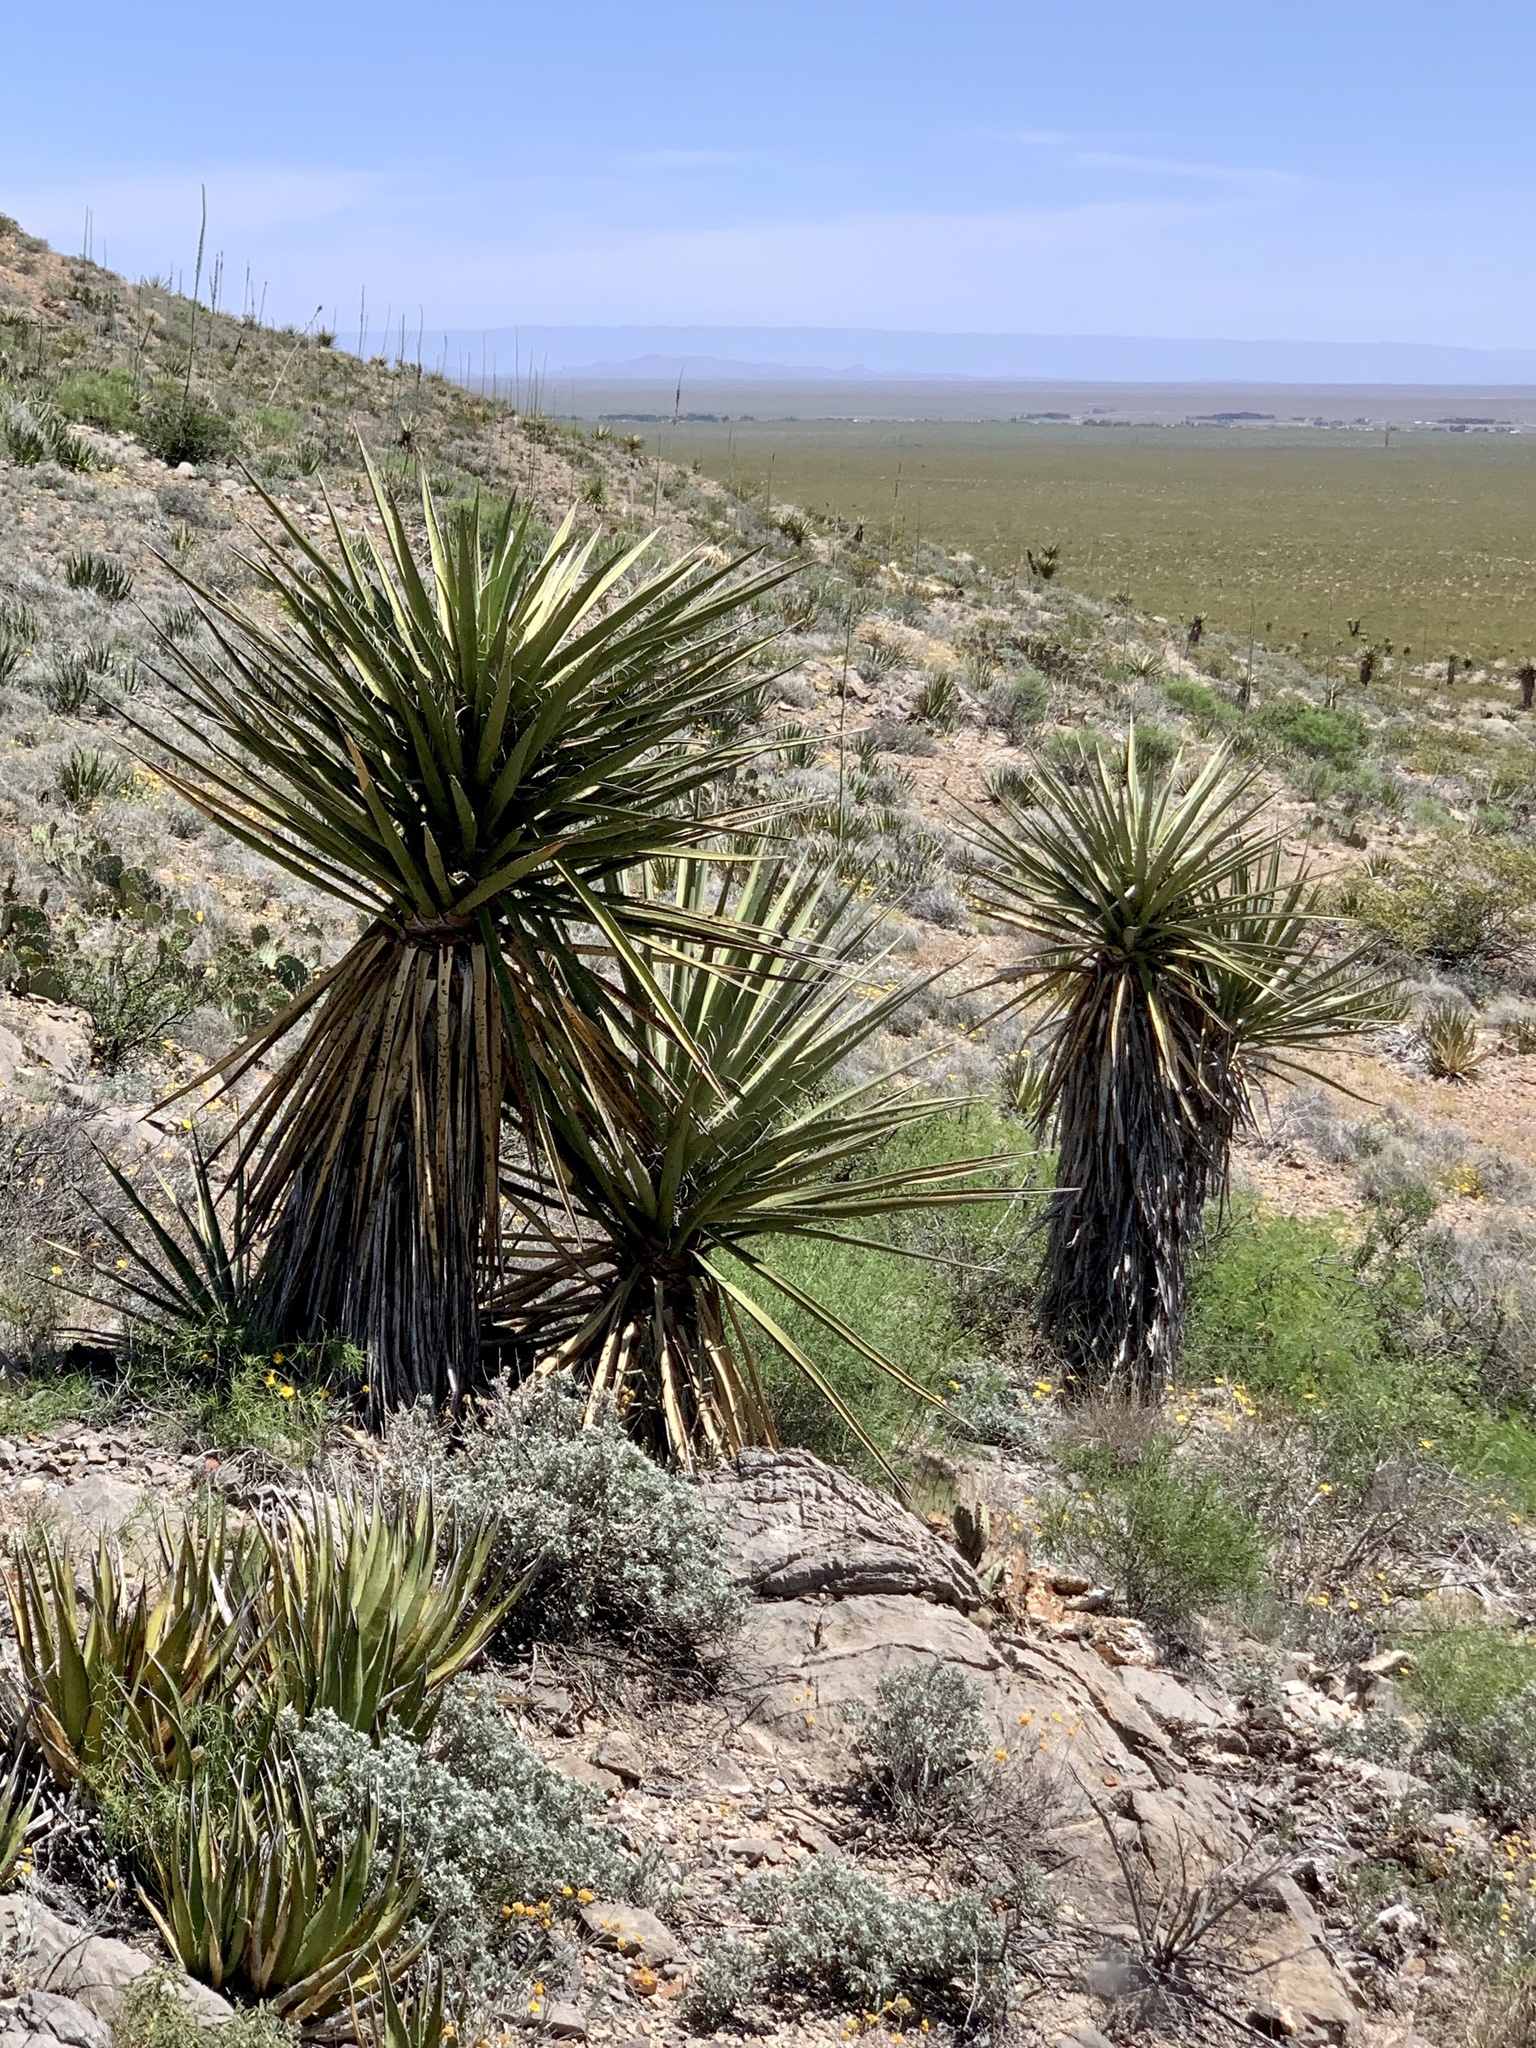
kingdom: Plantae
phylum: Tracheophyta
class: Liliopsida
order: Asparagales
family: Asparagaceae
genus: Yucca
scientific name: Yucca treculiana
